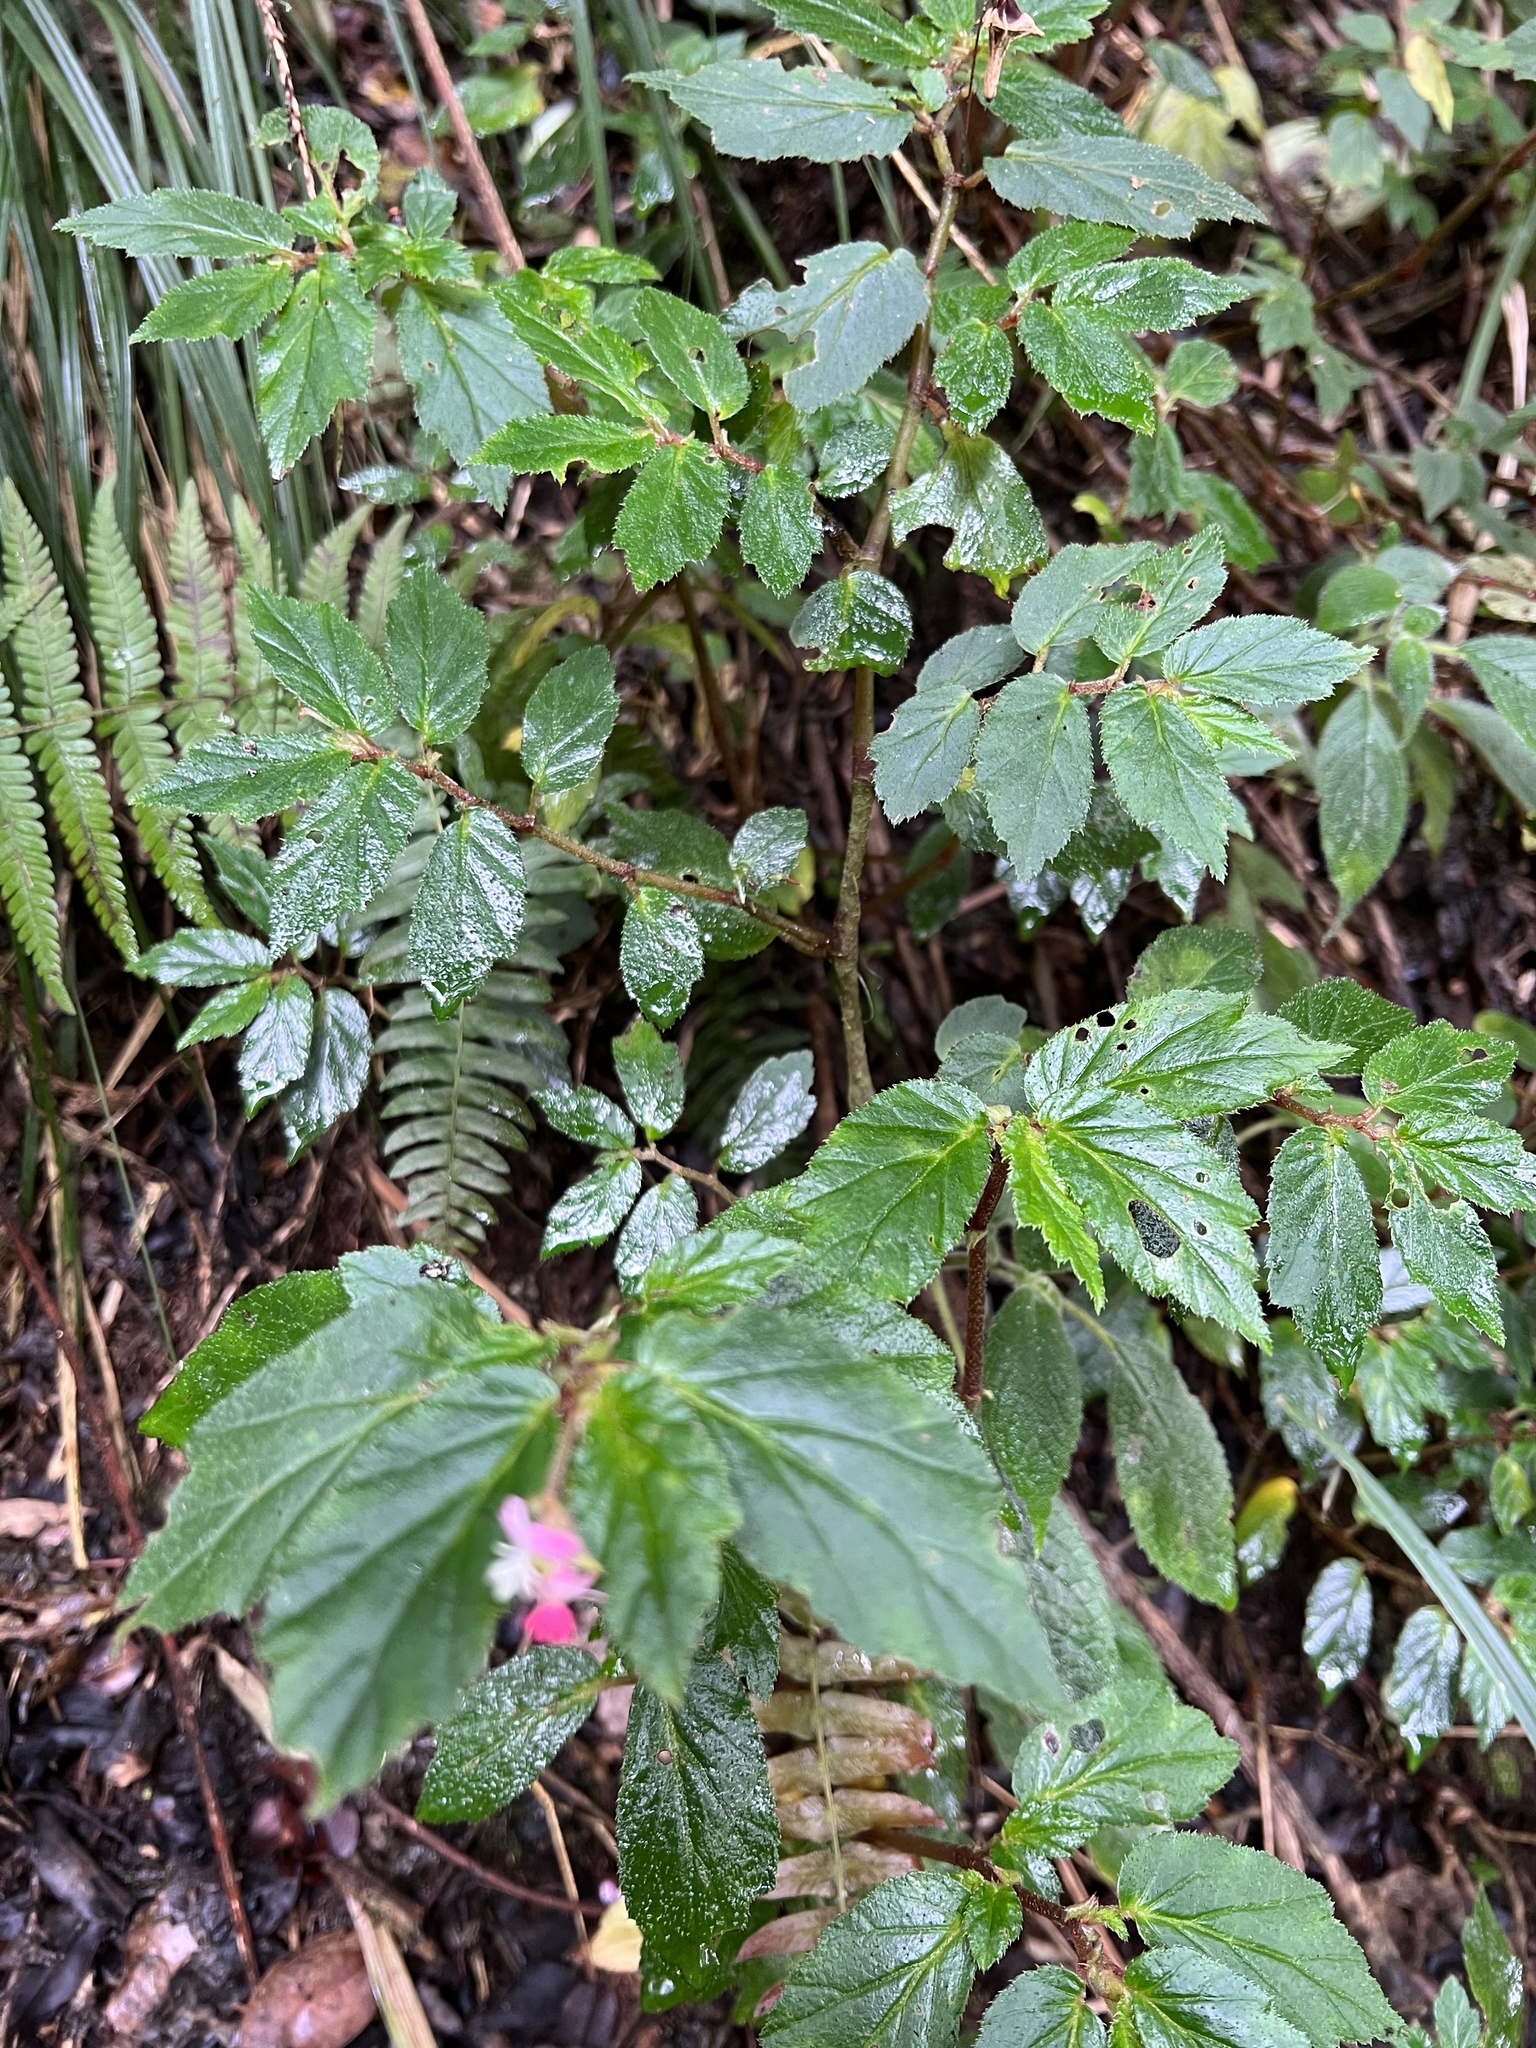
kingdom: Plantae
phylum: Tracheophyta
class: Magnoliopsida
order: Cucurbitales
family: Begoniaceae
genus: Begonia
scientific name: Begonia urticae
